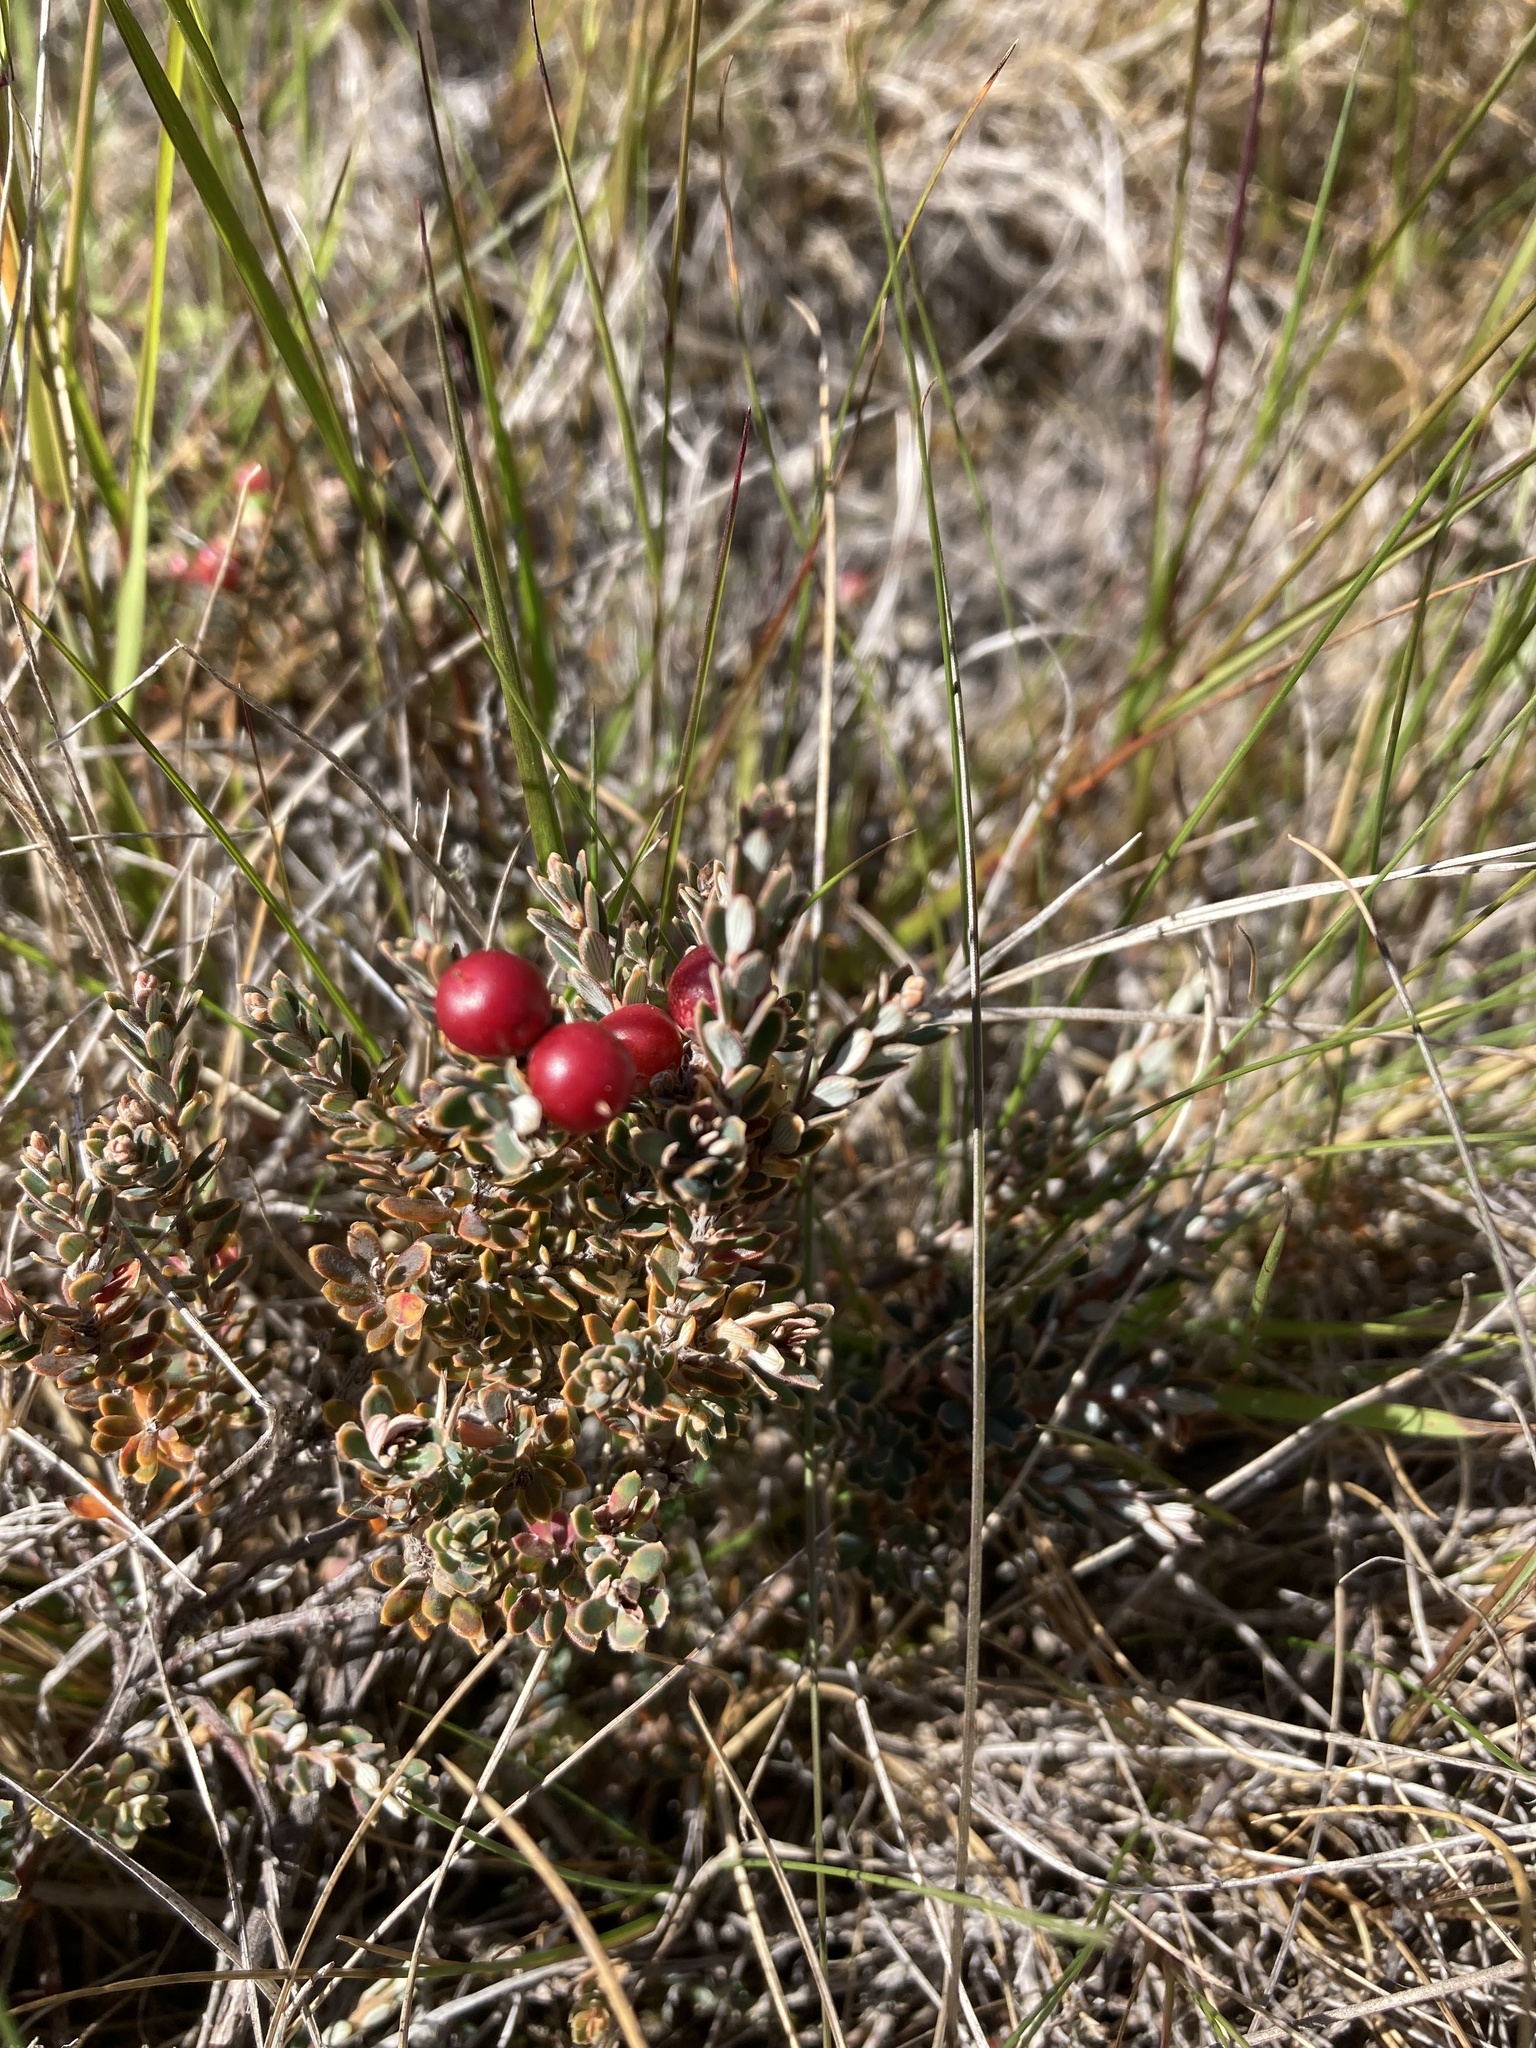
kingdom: Plantae
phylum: Tracheophyta
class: Magnoliopsida
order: Ericales
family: Ericaceae
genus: Acrothamnus
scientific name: Acrothamnus colensoi
